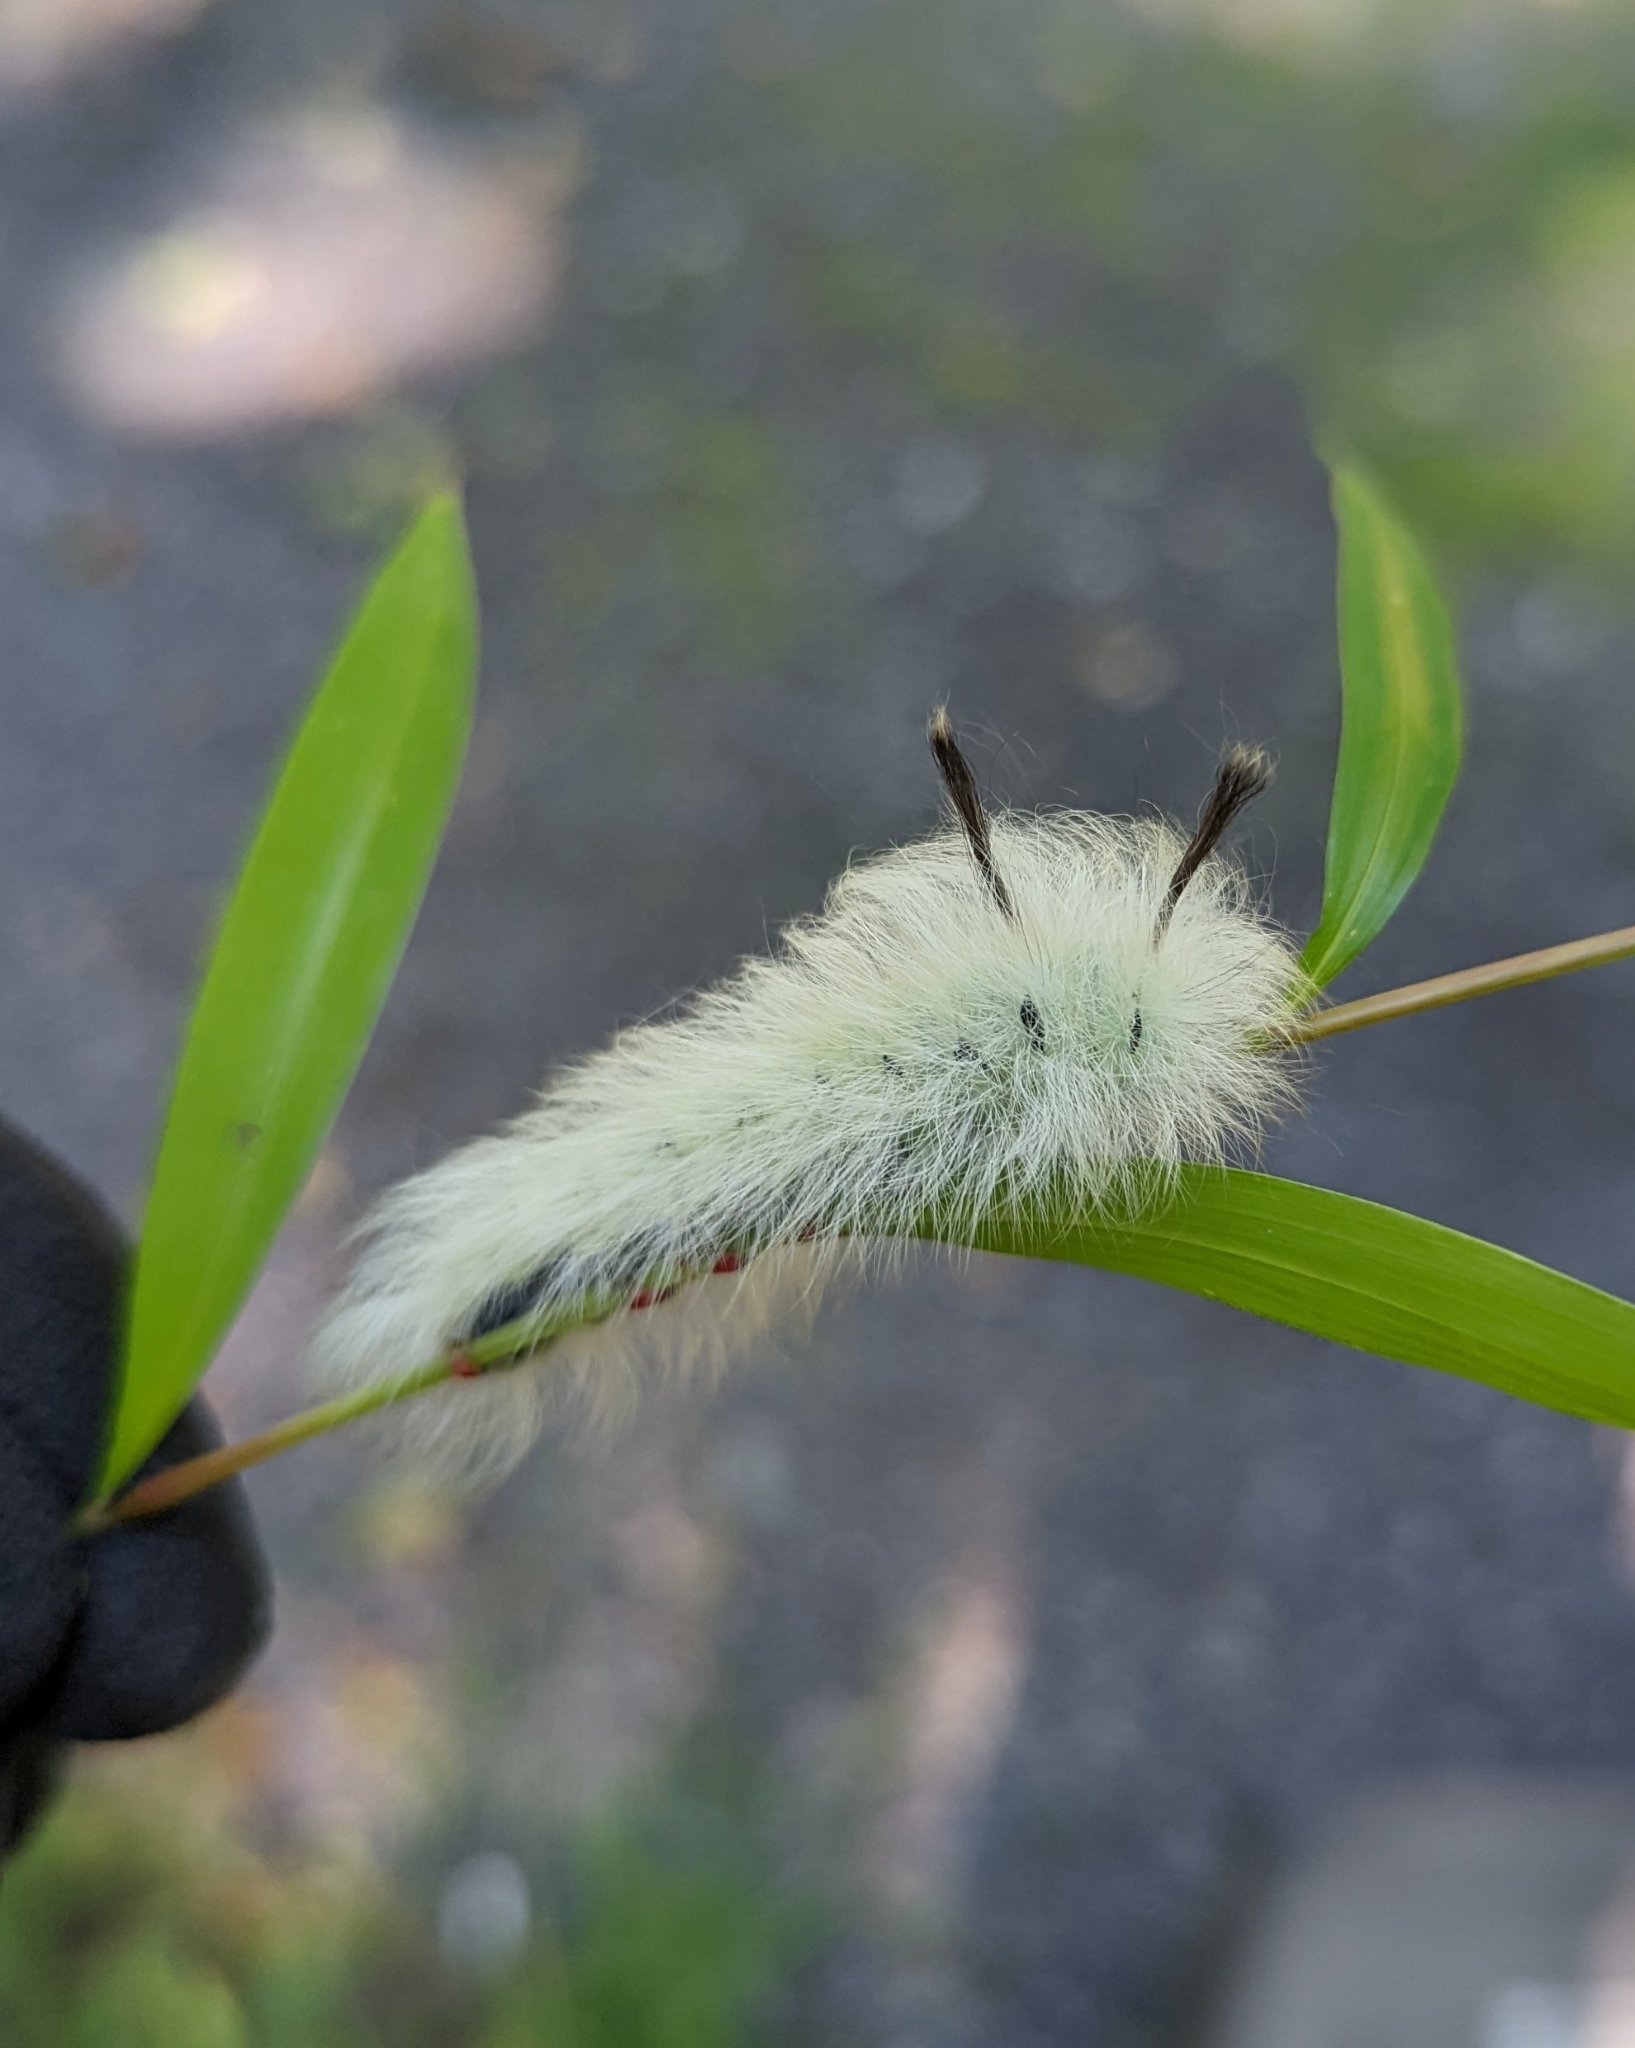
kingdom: Animalia
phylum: Arthropoda
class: Insecta
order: Lepidoptera
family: Apatelodidae
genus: Hygrochroa
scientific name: Hygrochroa Apatelodes torrefacta
